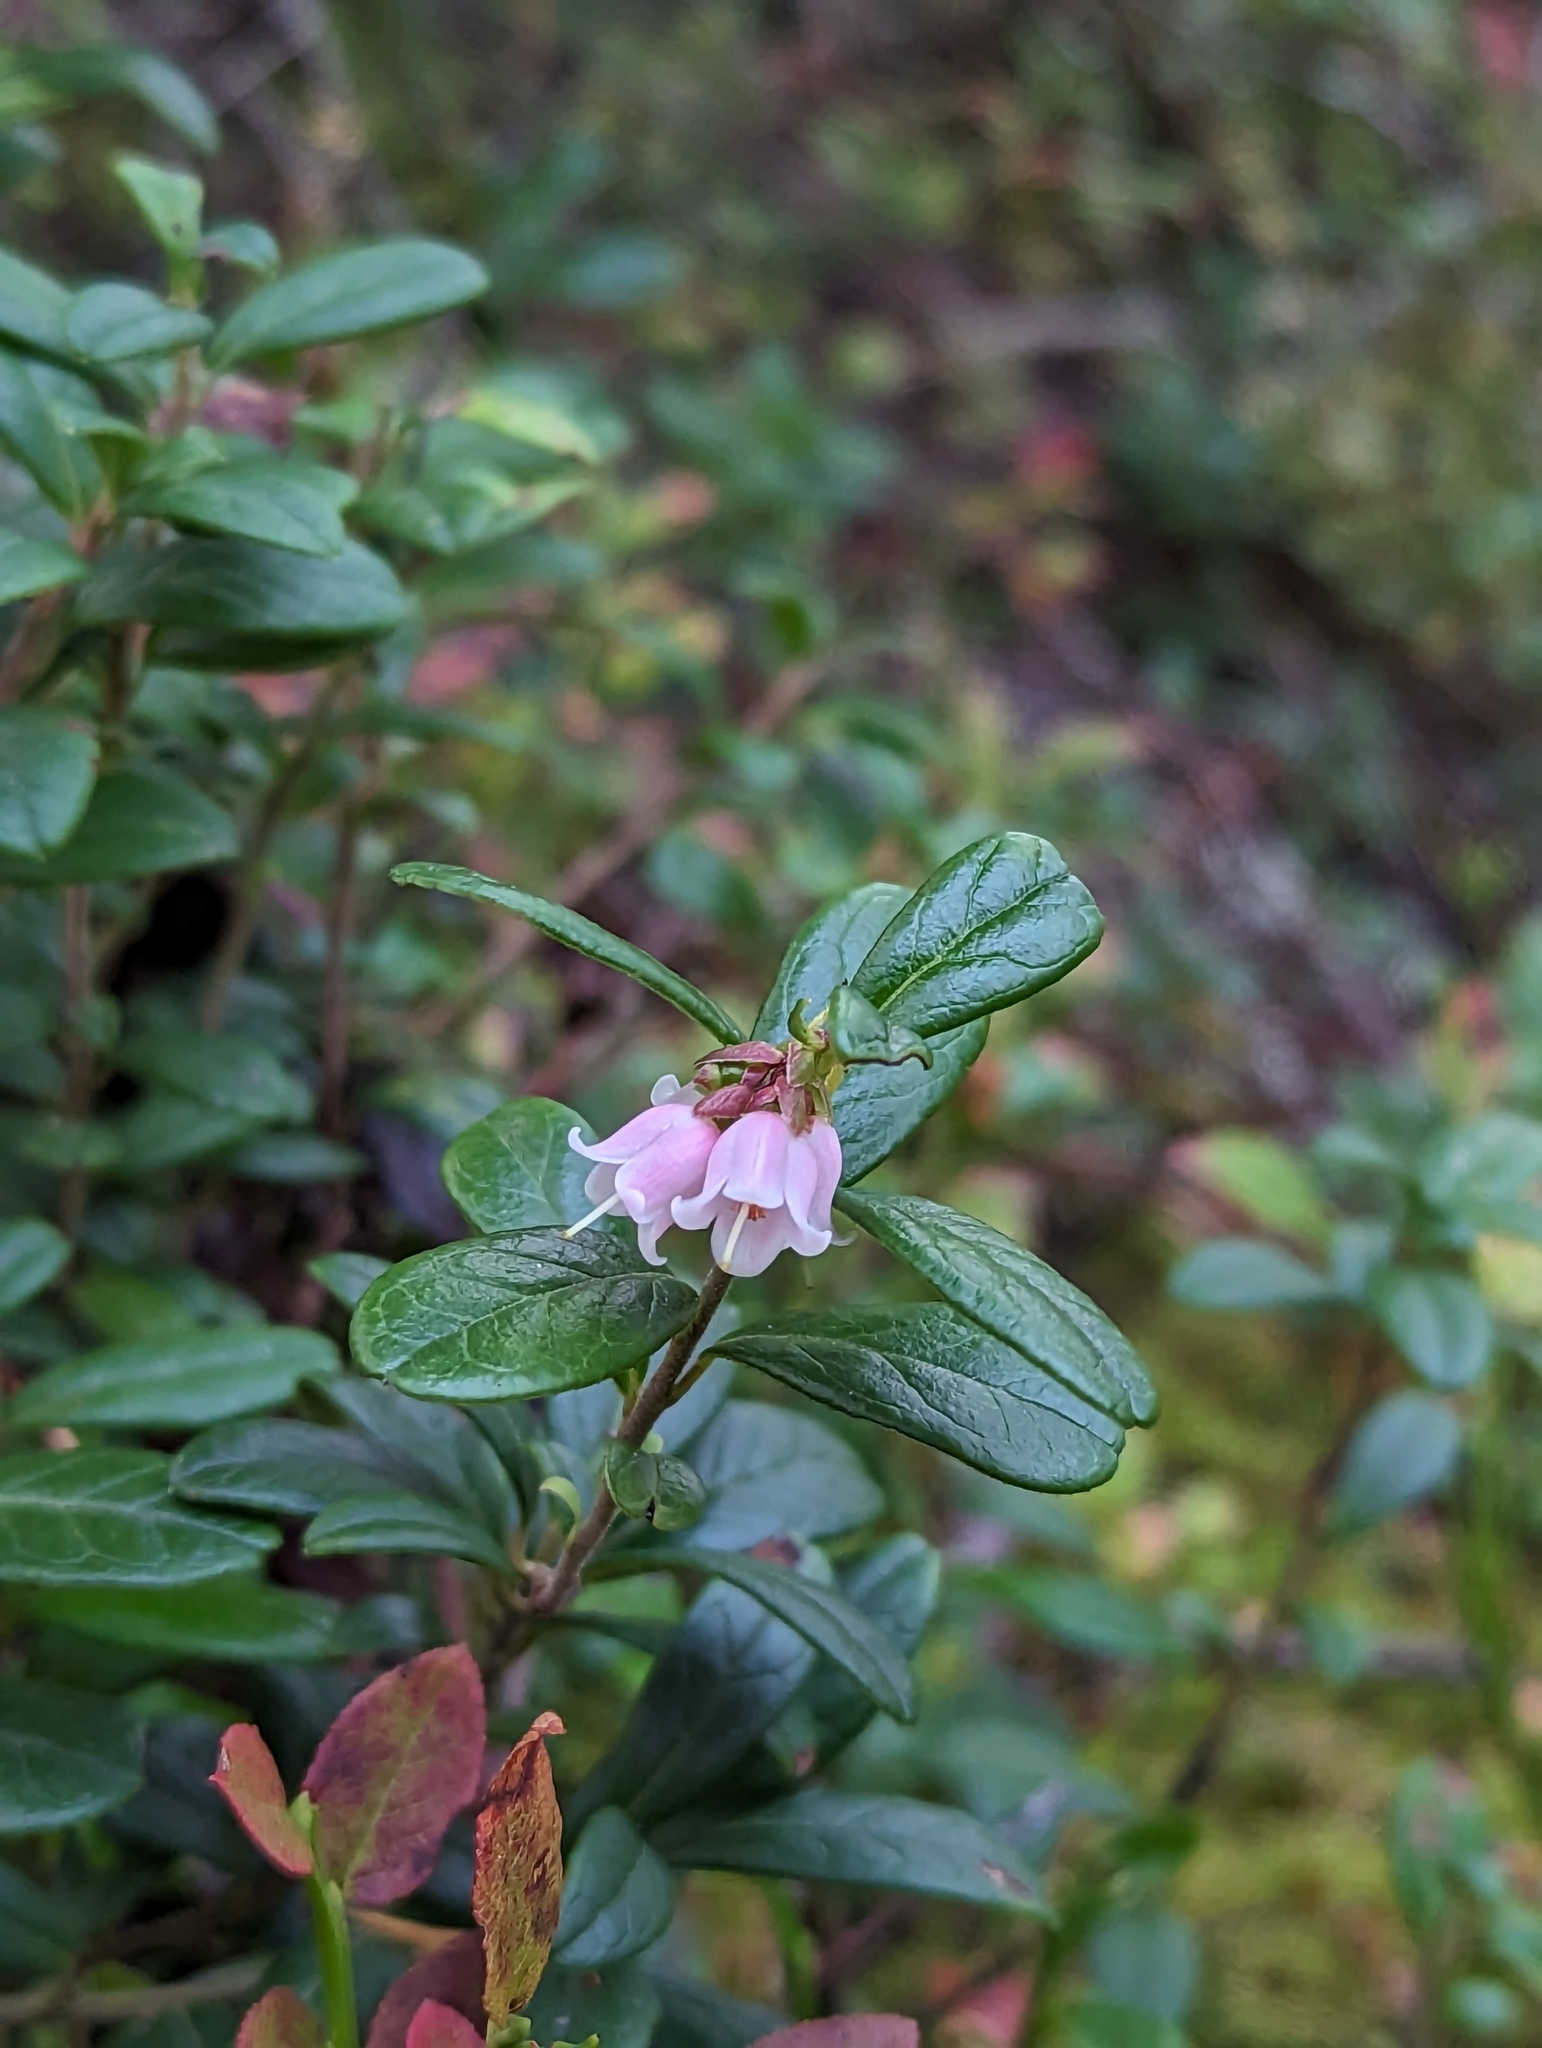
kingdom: Plantae
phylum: Tracheophyta
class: Magnoliopsida
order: Ericales
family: Ericaceae
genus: Vaccinium
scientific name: Vaccinium vitis-idaea
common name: Cowberry
